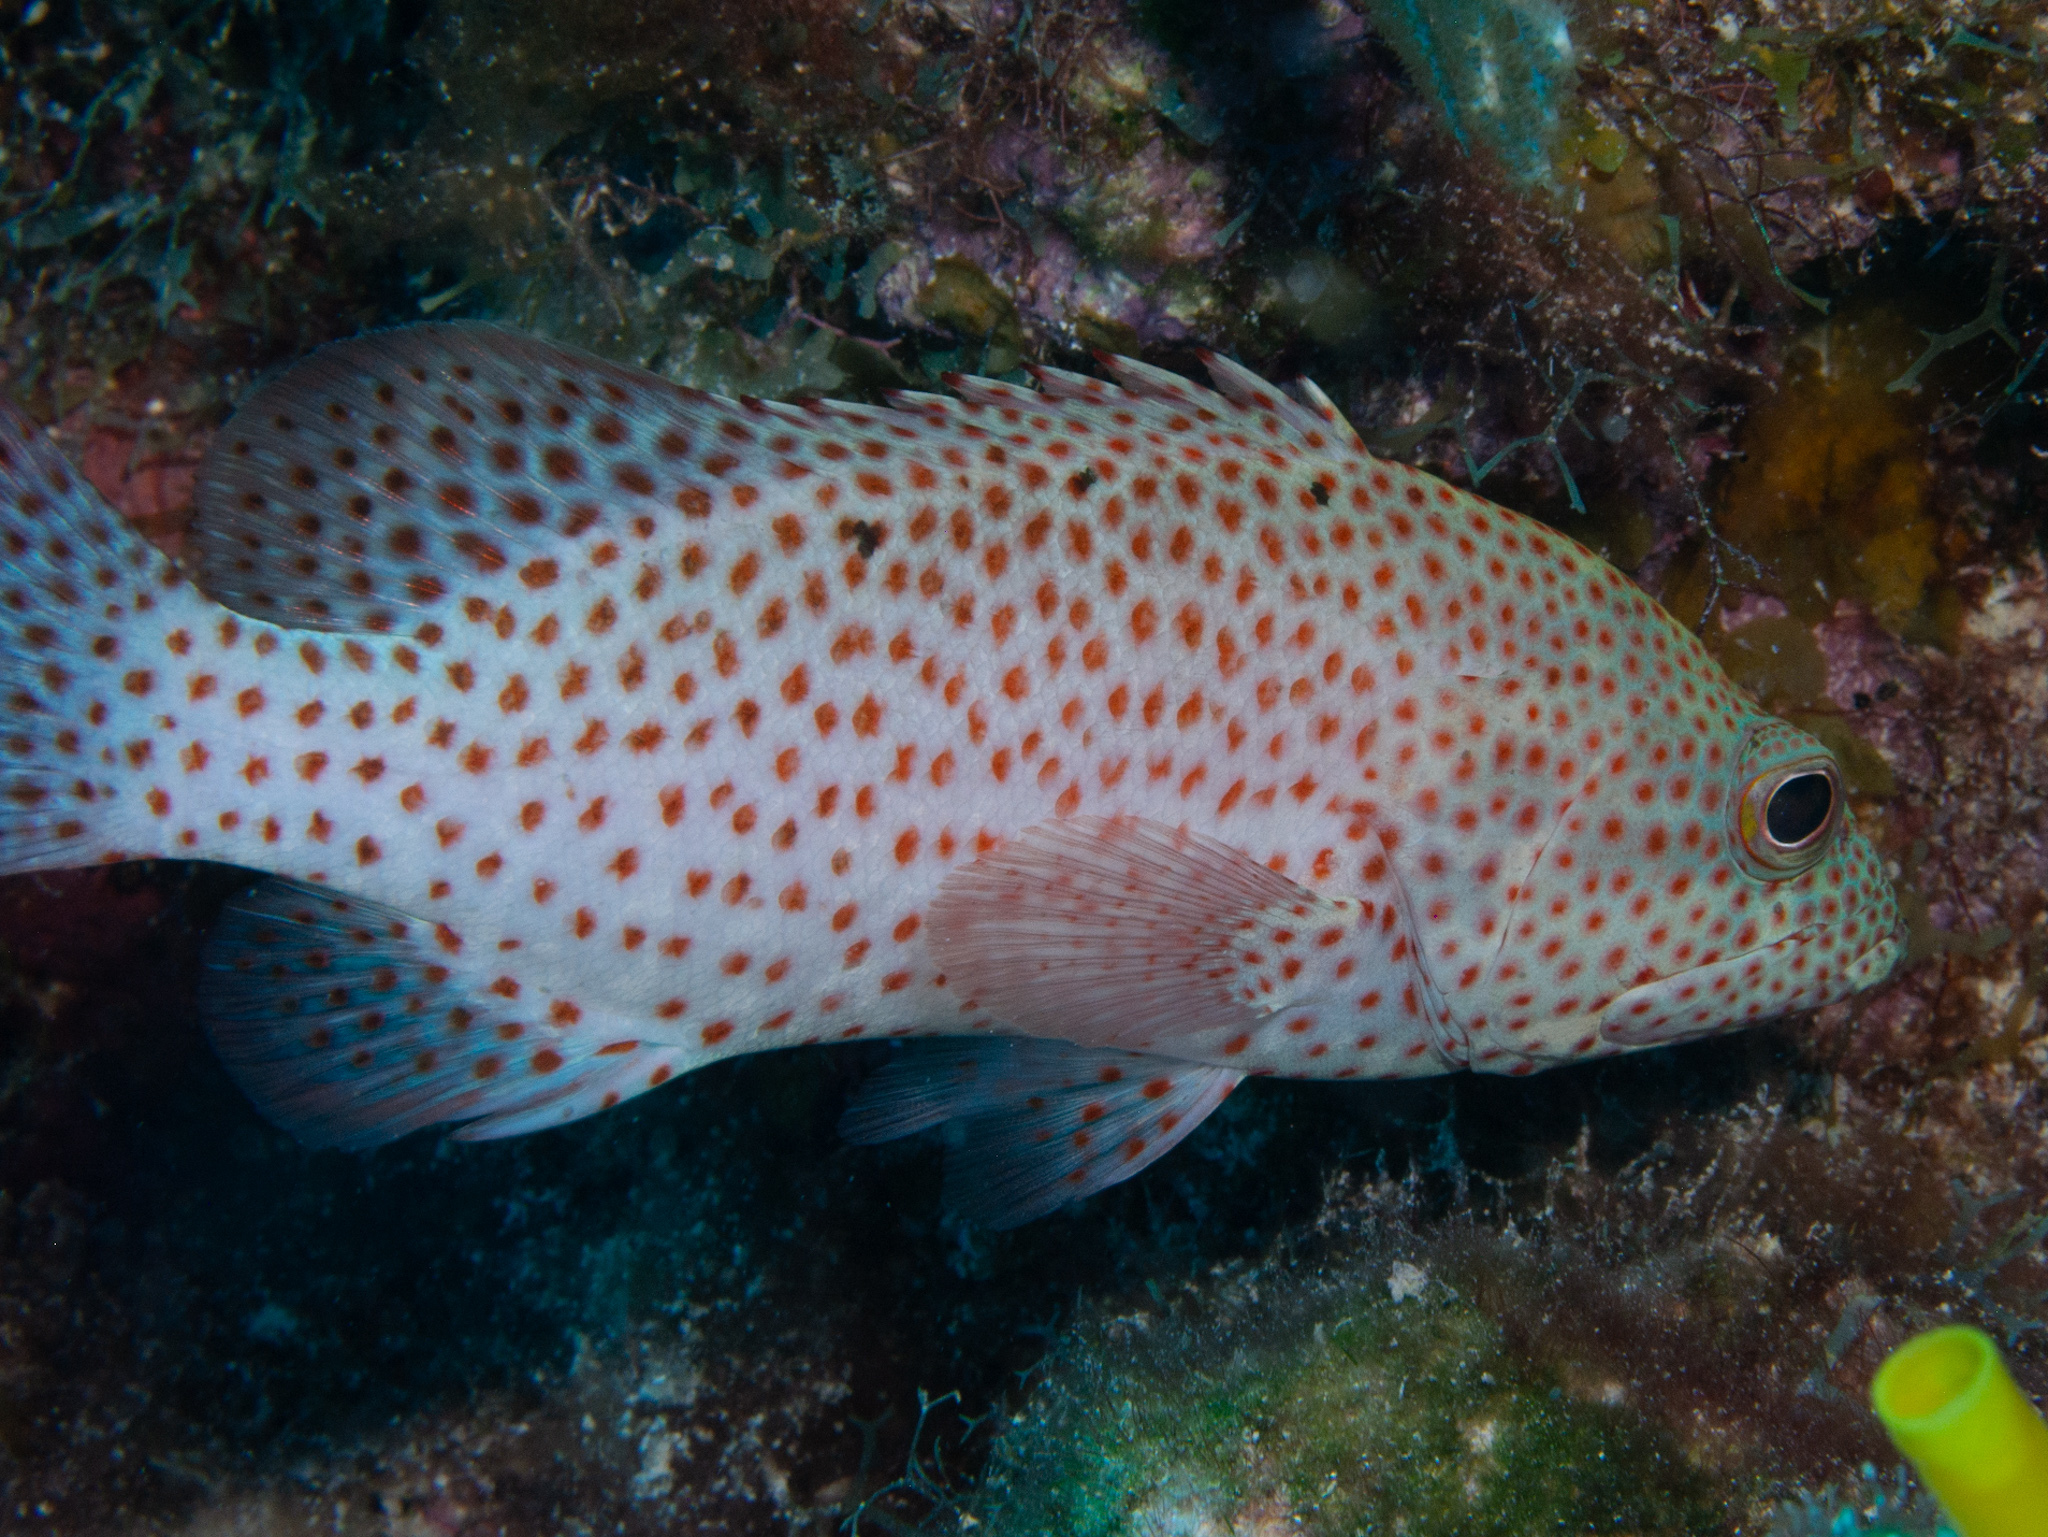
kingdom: Animalia
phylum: Chordata
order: Perciformes
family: Serranidae
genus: Cephalopholis
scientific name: Cephalopholis cruentata
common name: Graysby
